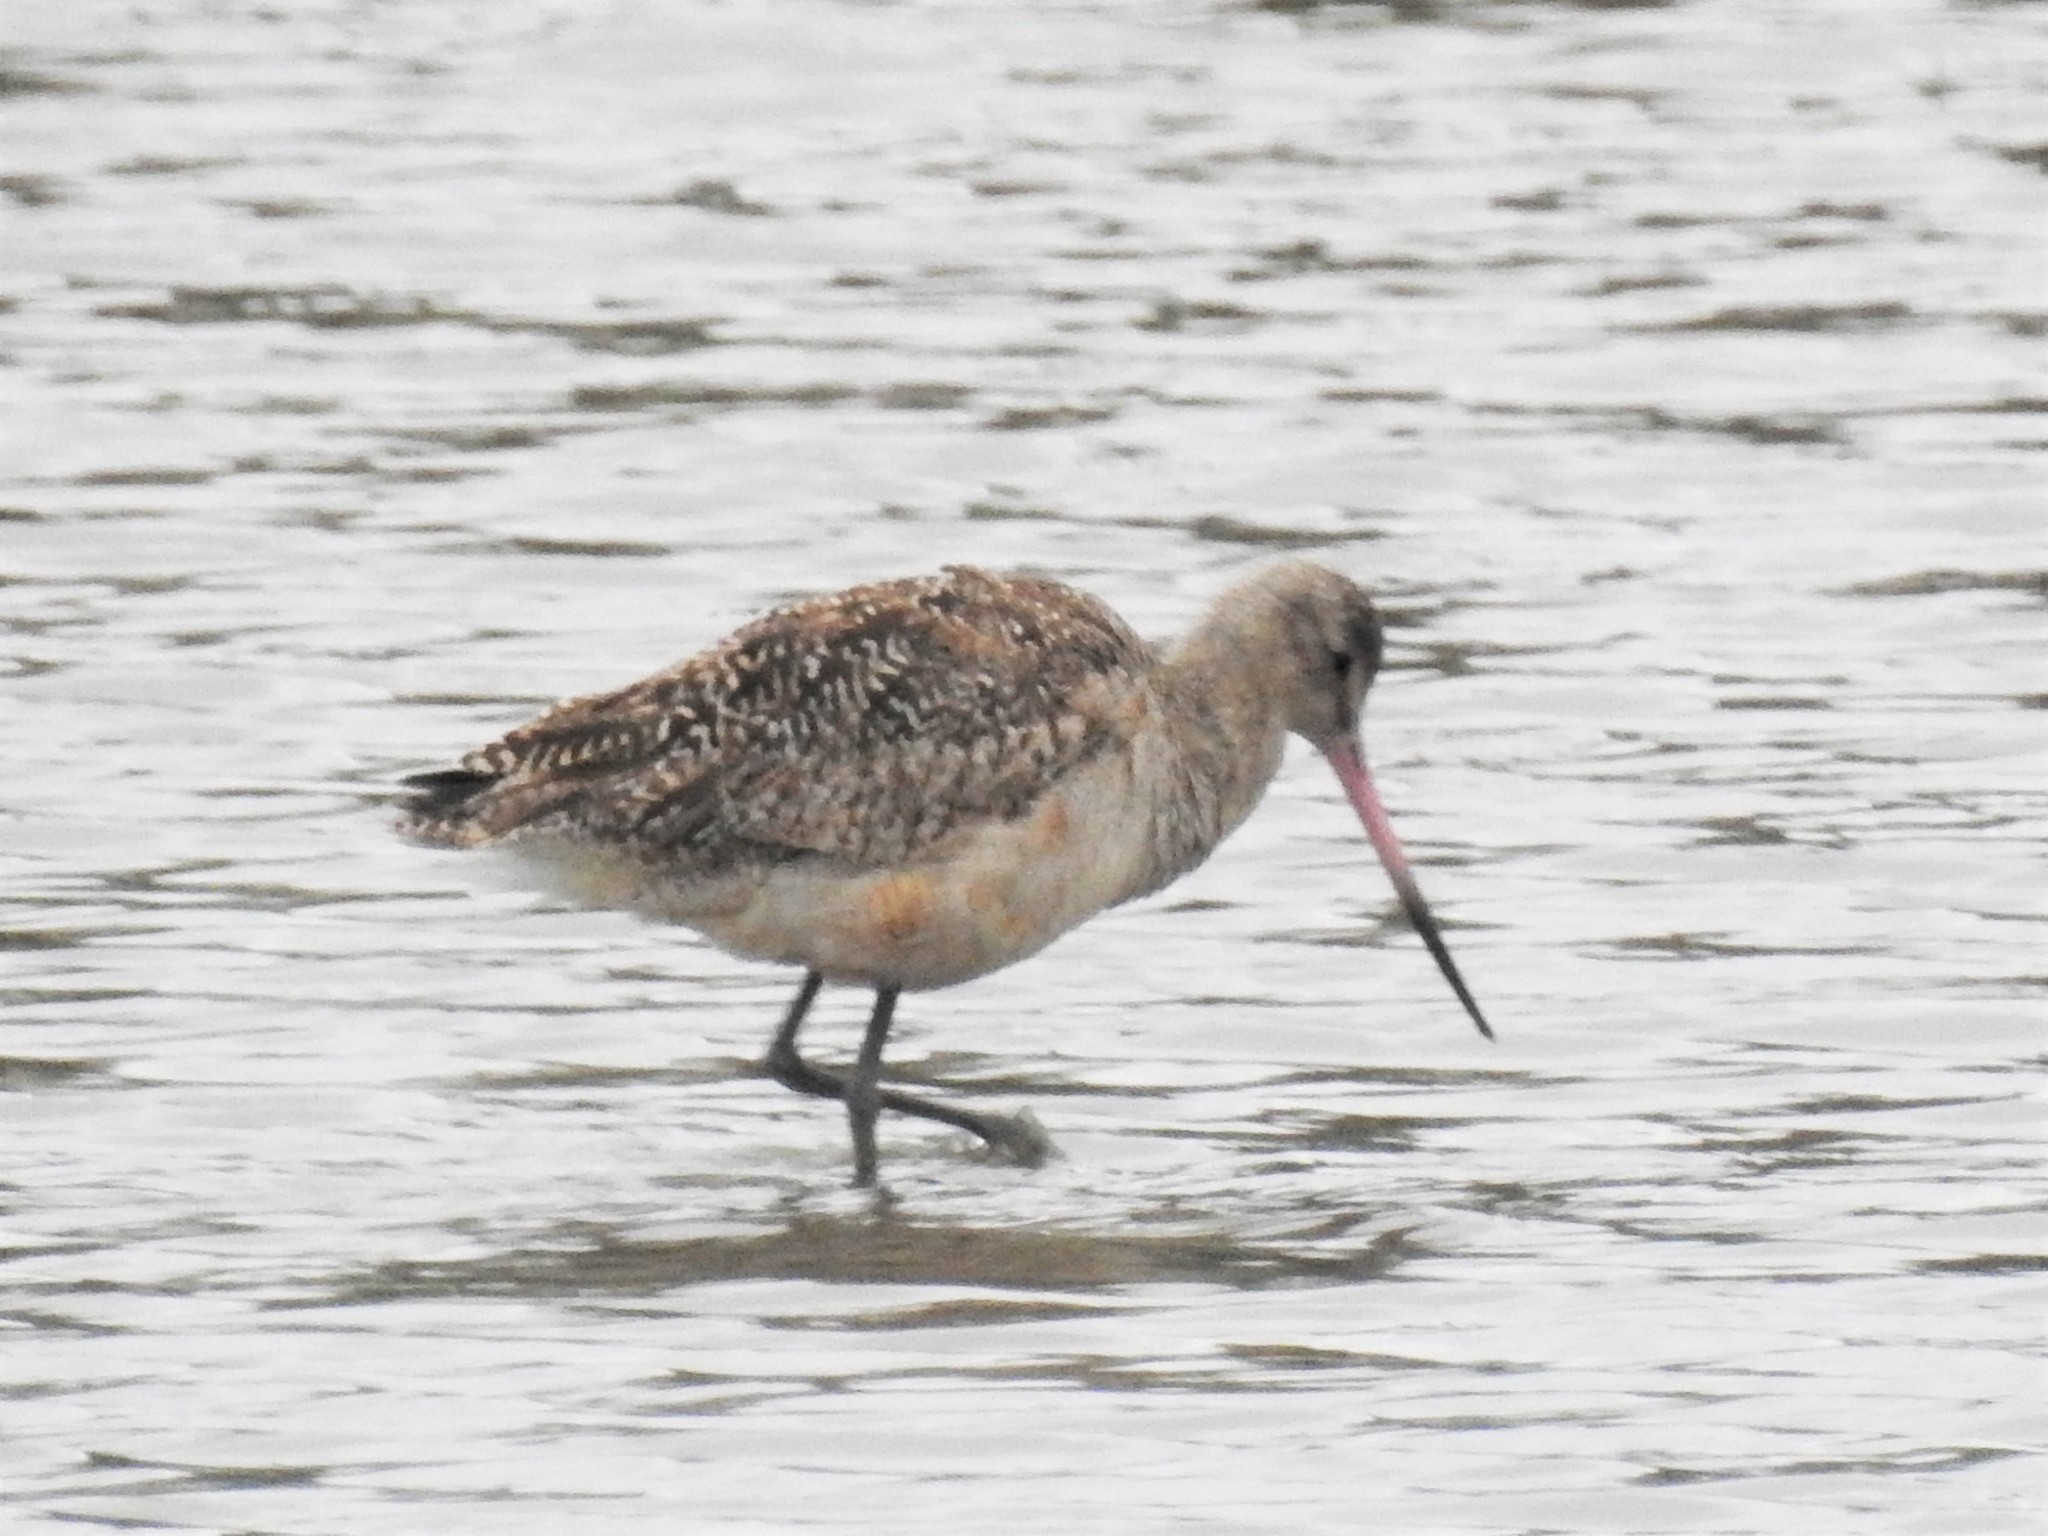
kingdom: Animalia
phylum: Chordata
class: Aves
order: Charadriiformes
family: Scolopacidae
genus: Limosa
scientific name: Limosa fedoa
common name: Marbled godwit
